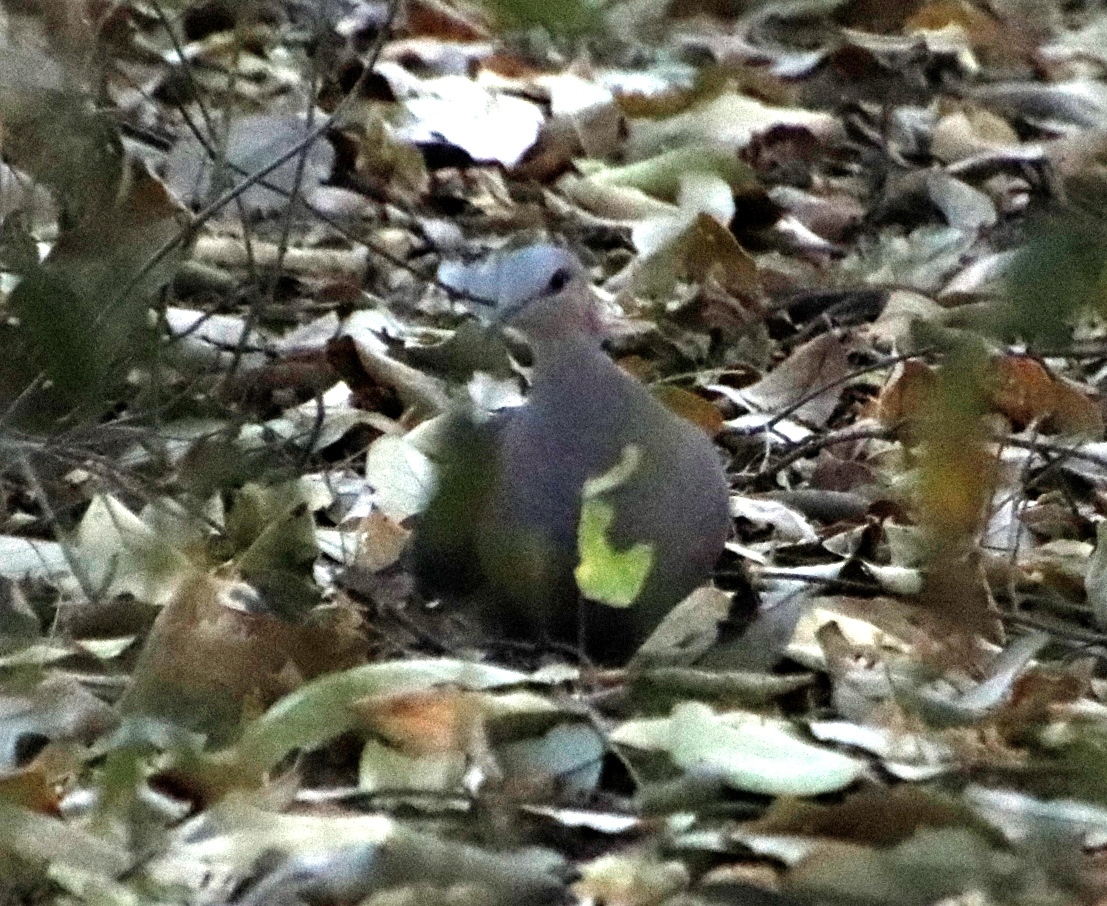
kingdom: Animalia
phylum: Chordata
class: Aves
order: Columbiformes
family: Columbidae
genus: Streptopelia
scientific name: Streptopelia semitorquata
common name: Red-eyed dove
